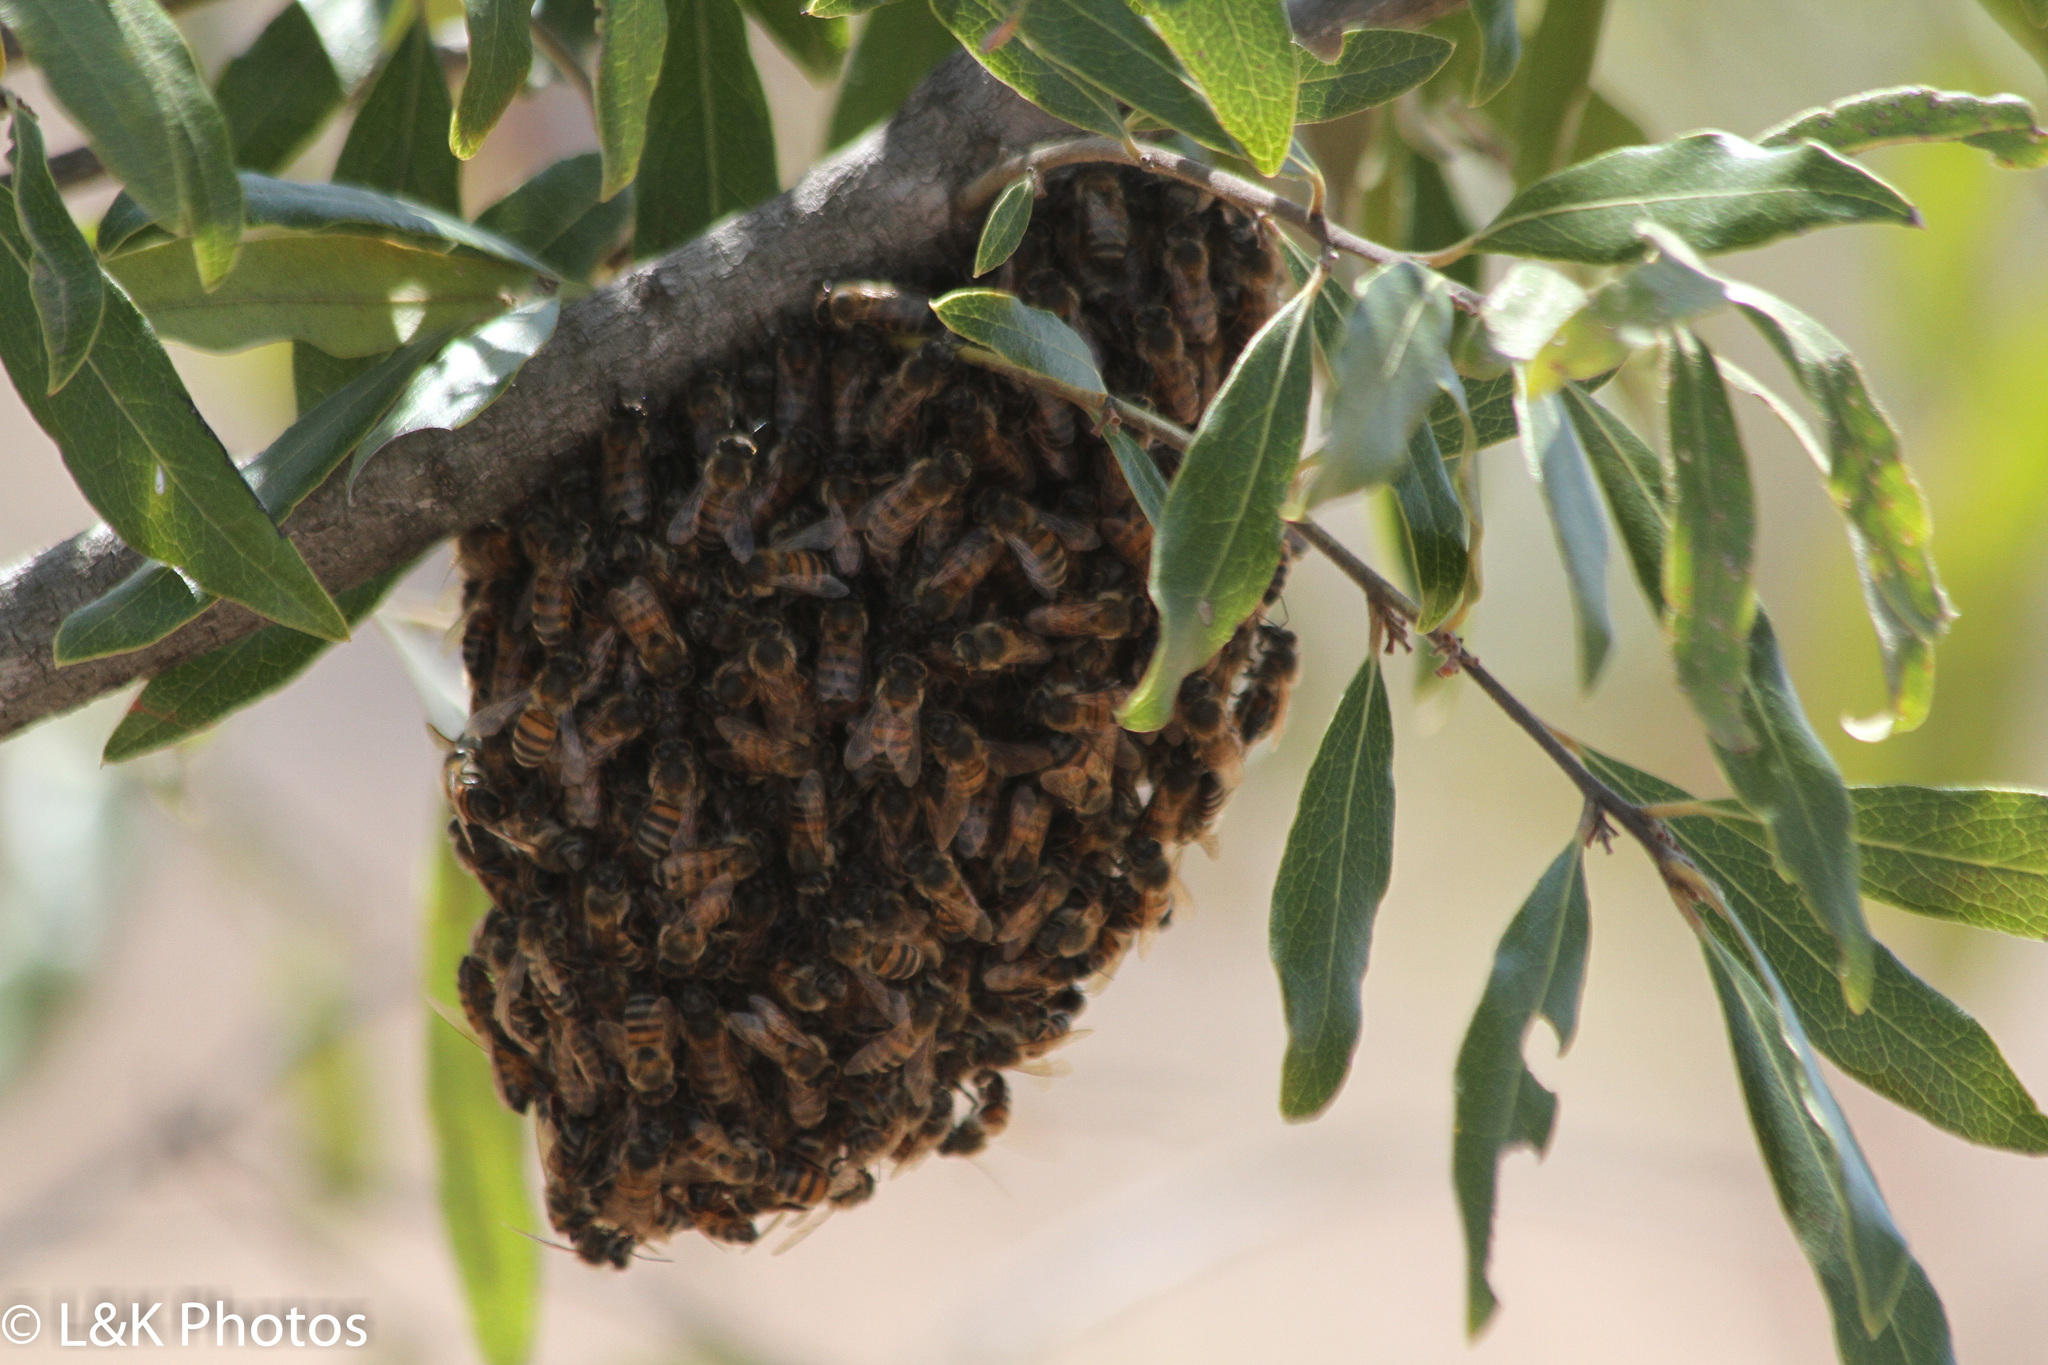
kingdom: Animalia
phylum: Arthropoda
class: Insecta
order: Hymenoptera
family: Apidae
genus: Apis
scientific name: Apis mellifera
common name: Honey bee
